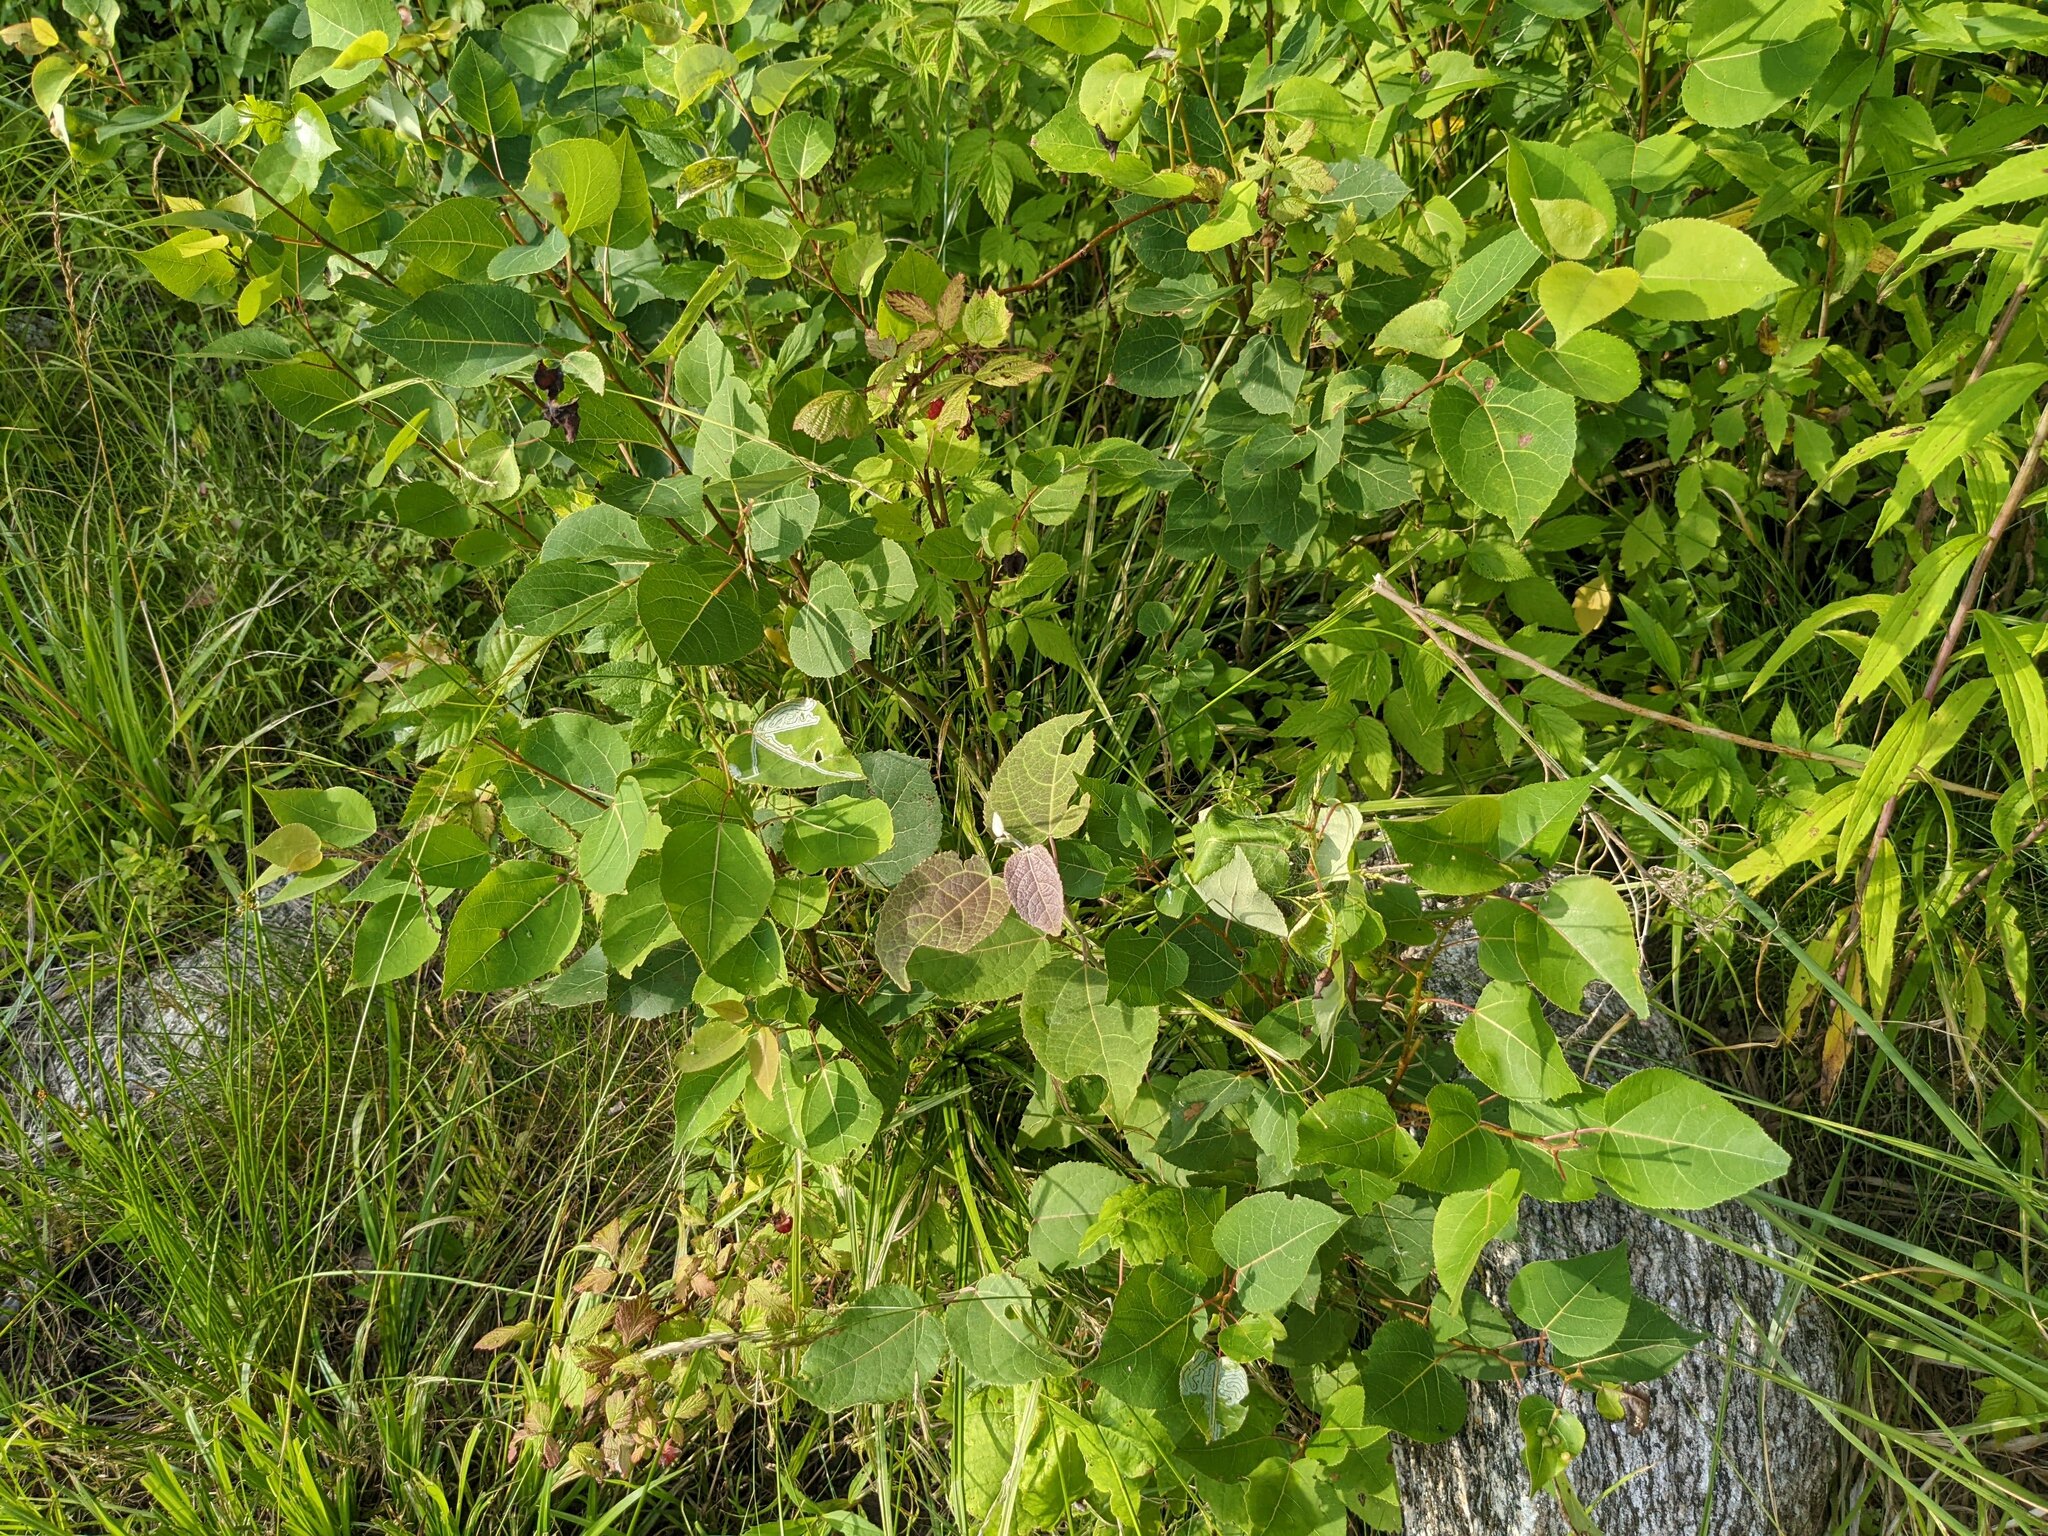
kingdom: Plantae
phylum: Tracheophyta
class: Magnoliopsida
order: Malpighiales
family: Salicaceae
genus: Populus
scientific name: Populus tremuloides
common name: Quaking aspen
